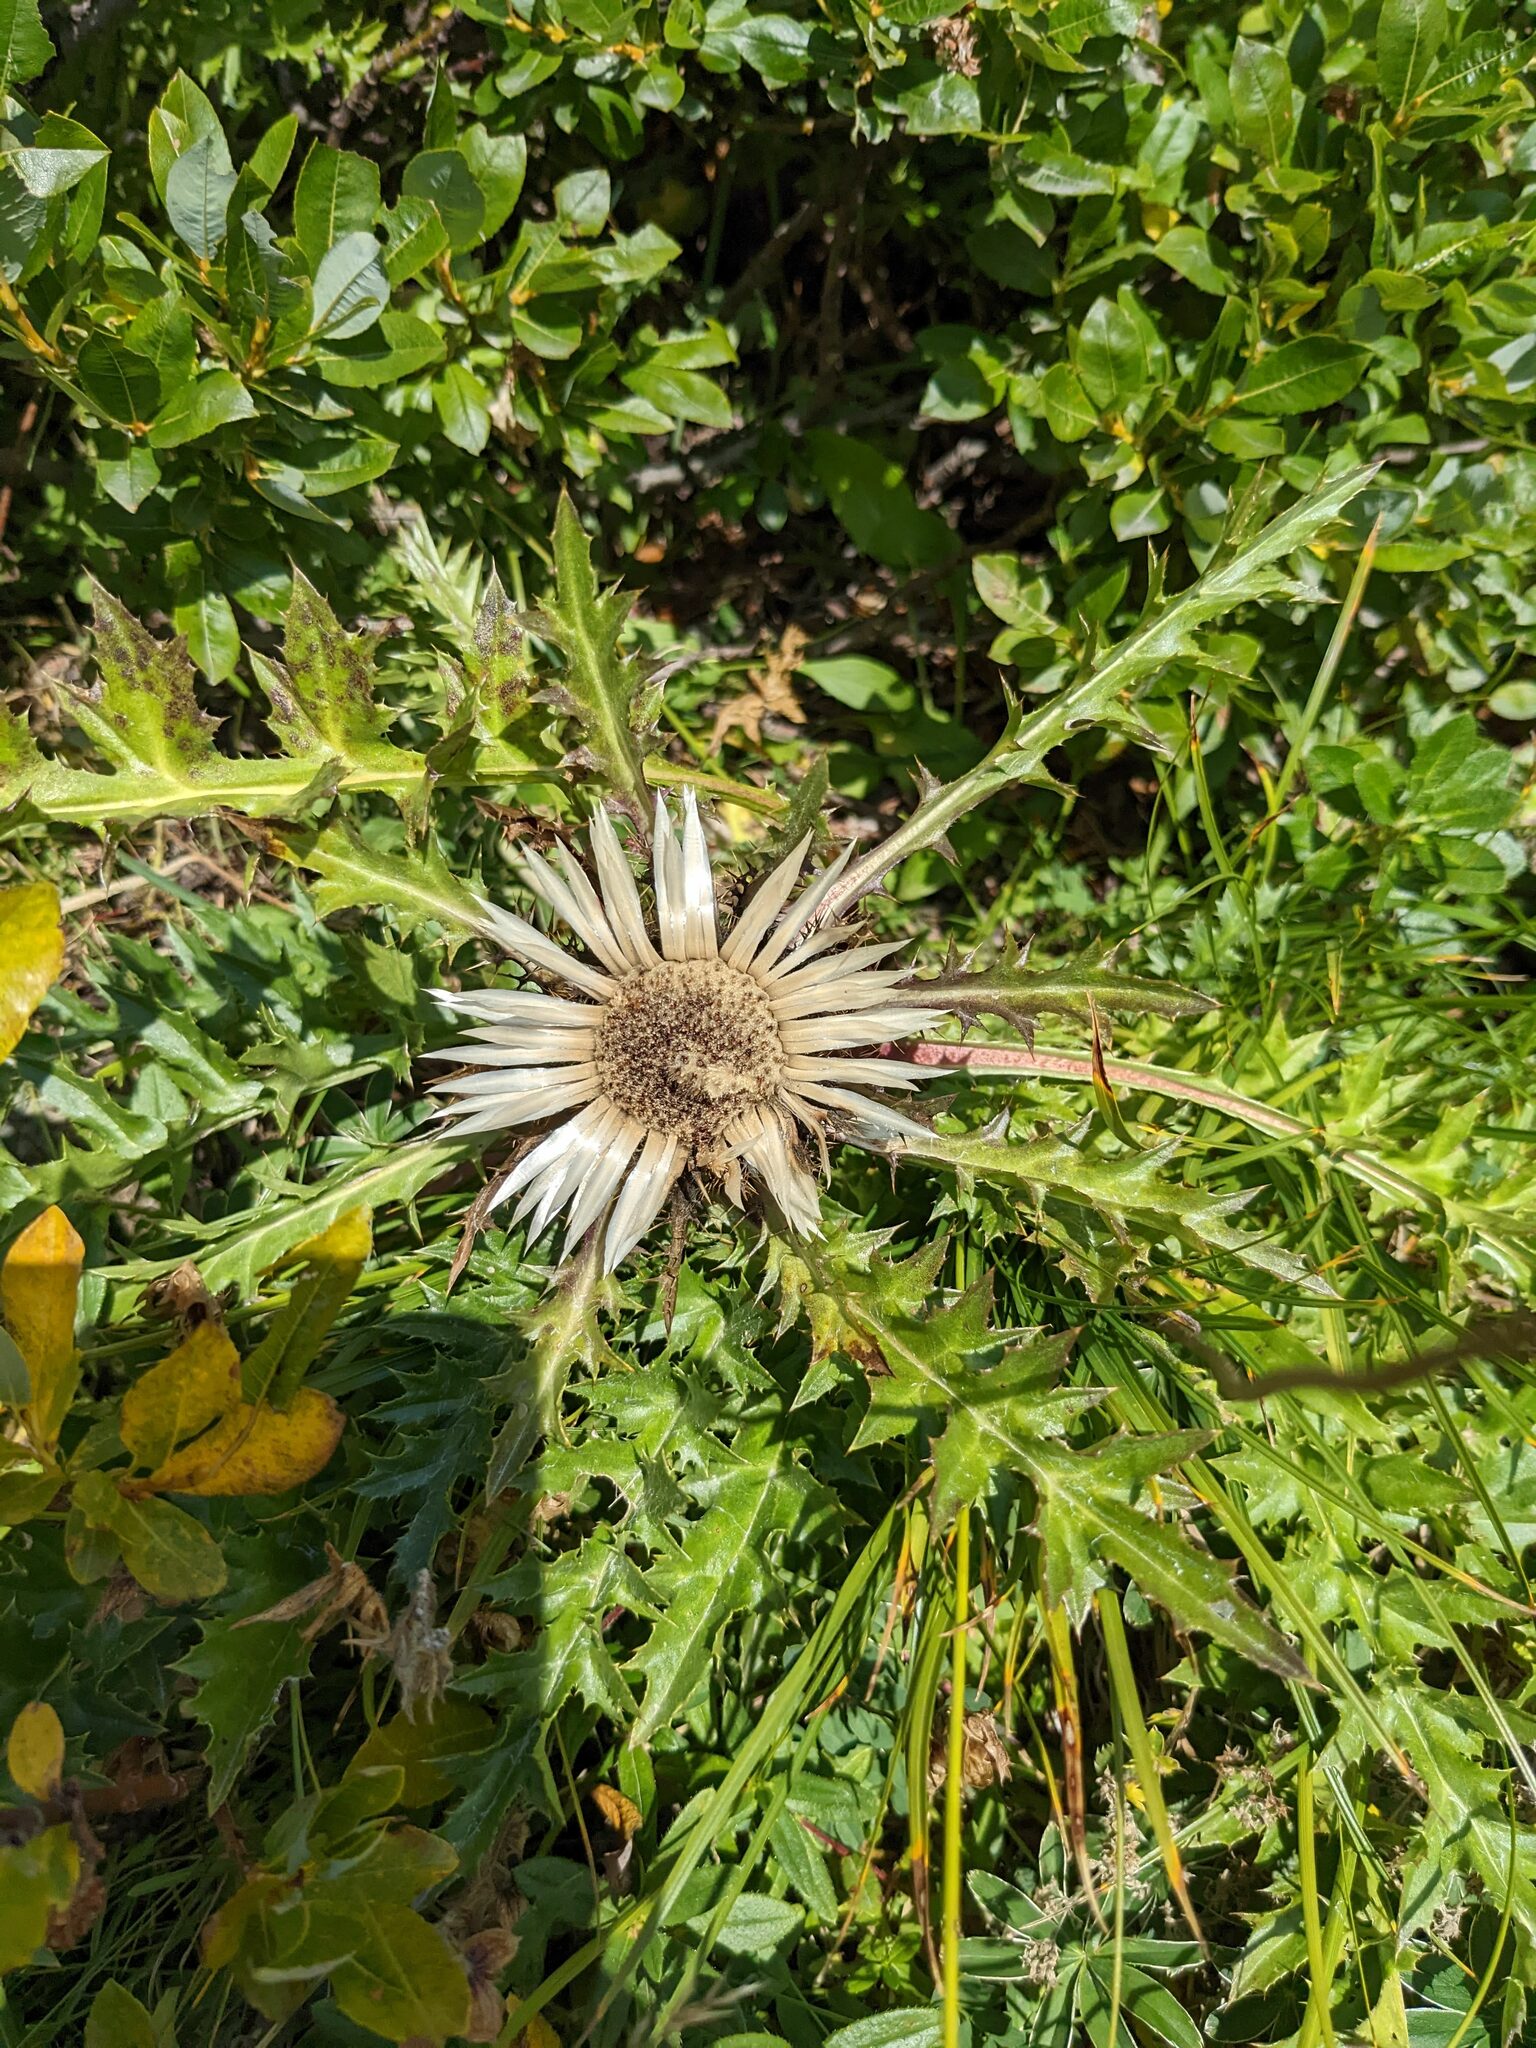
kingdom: Plantae
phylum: Tracheophyta
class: Magnoliopsida
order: Asterales
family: Asteraceae
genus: Carlina
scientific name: Carlina acaulis
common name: Stemless carline thistle
